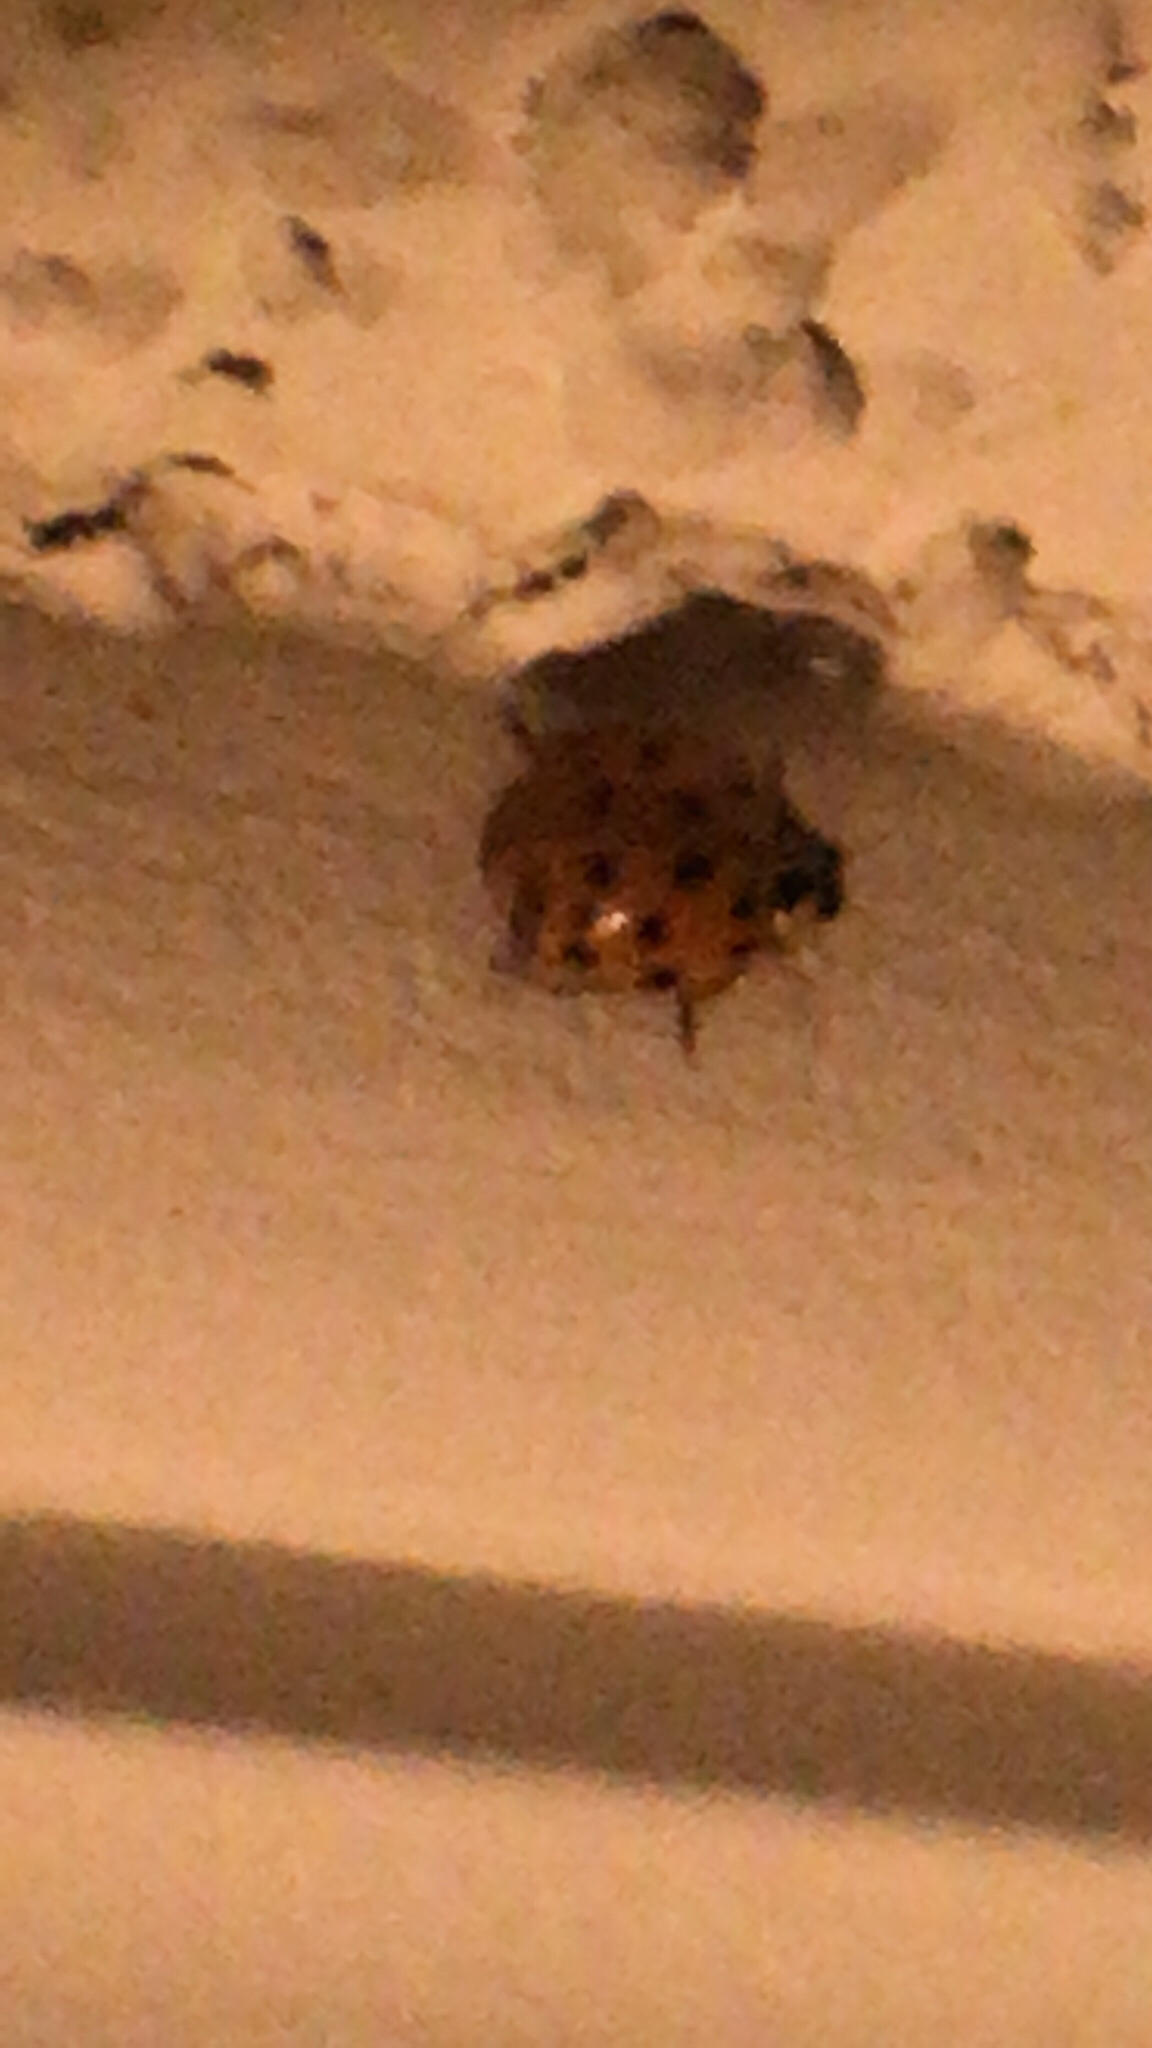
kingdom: Animalia
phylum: Arthropoda
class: Insecta
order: Coleoptera
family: Coccinellidae
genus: Harmonia
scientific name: Harmonia axyridis
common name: Harlequin ladybird
